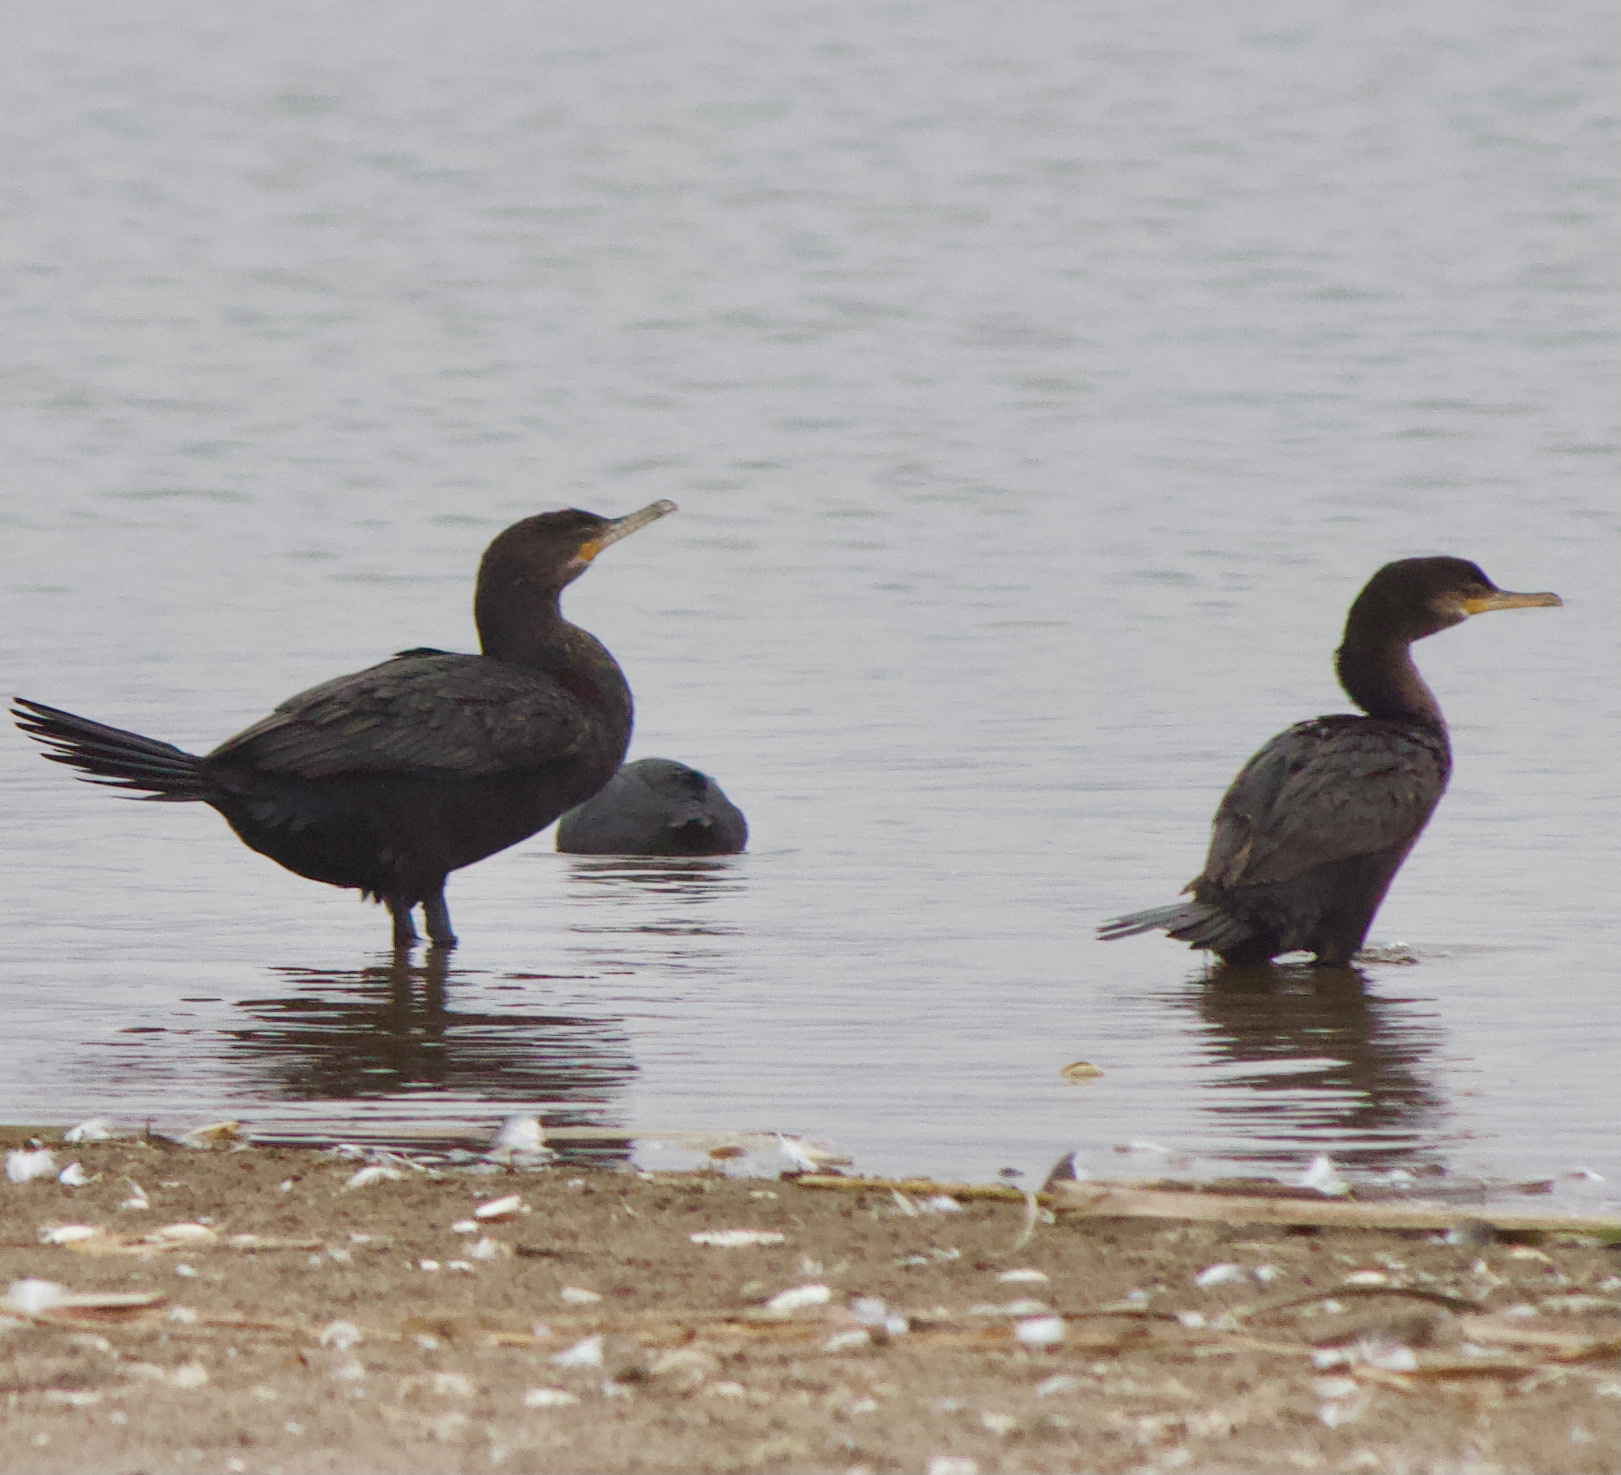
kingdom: Animalia
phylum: Chordata
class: Aves
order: Suliformes
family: Phalacrocoracidae
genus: Phalacrocorax
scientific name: Phalacrocorax brasilianus
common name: Neotropic cormorant
